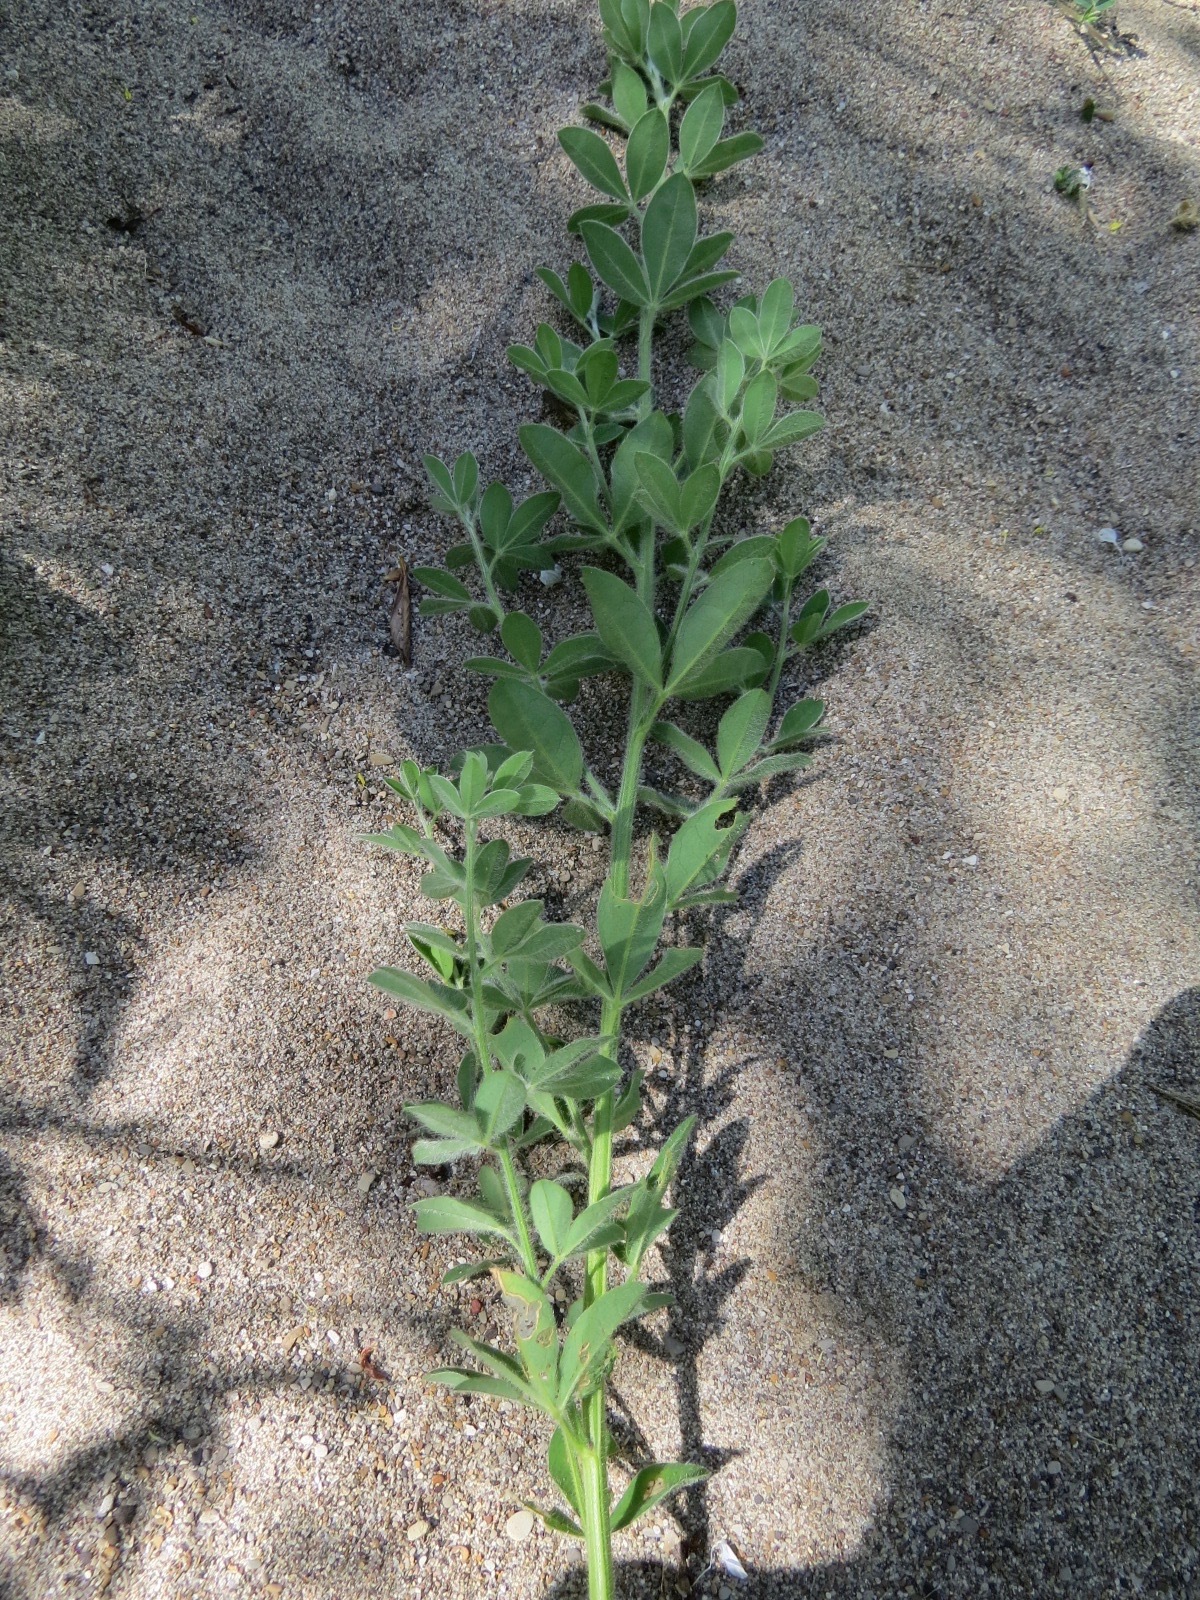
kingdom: Plantae
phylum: Tracheophyta
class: Magnoliopsida
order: Fabales
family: Fabaceae
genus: Genista
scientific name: Genista monspessulana
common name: Montpellier broom
